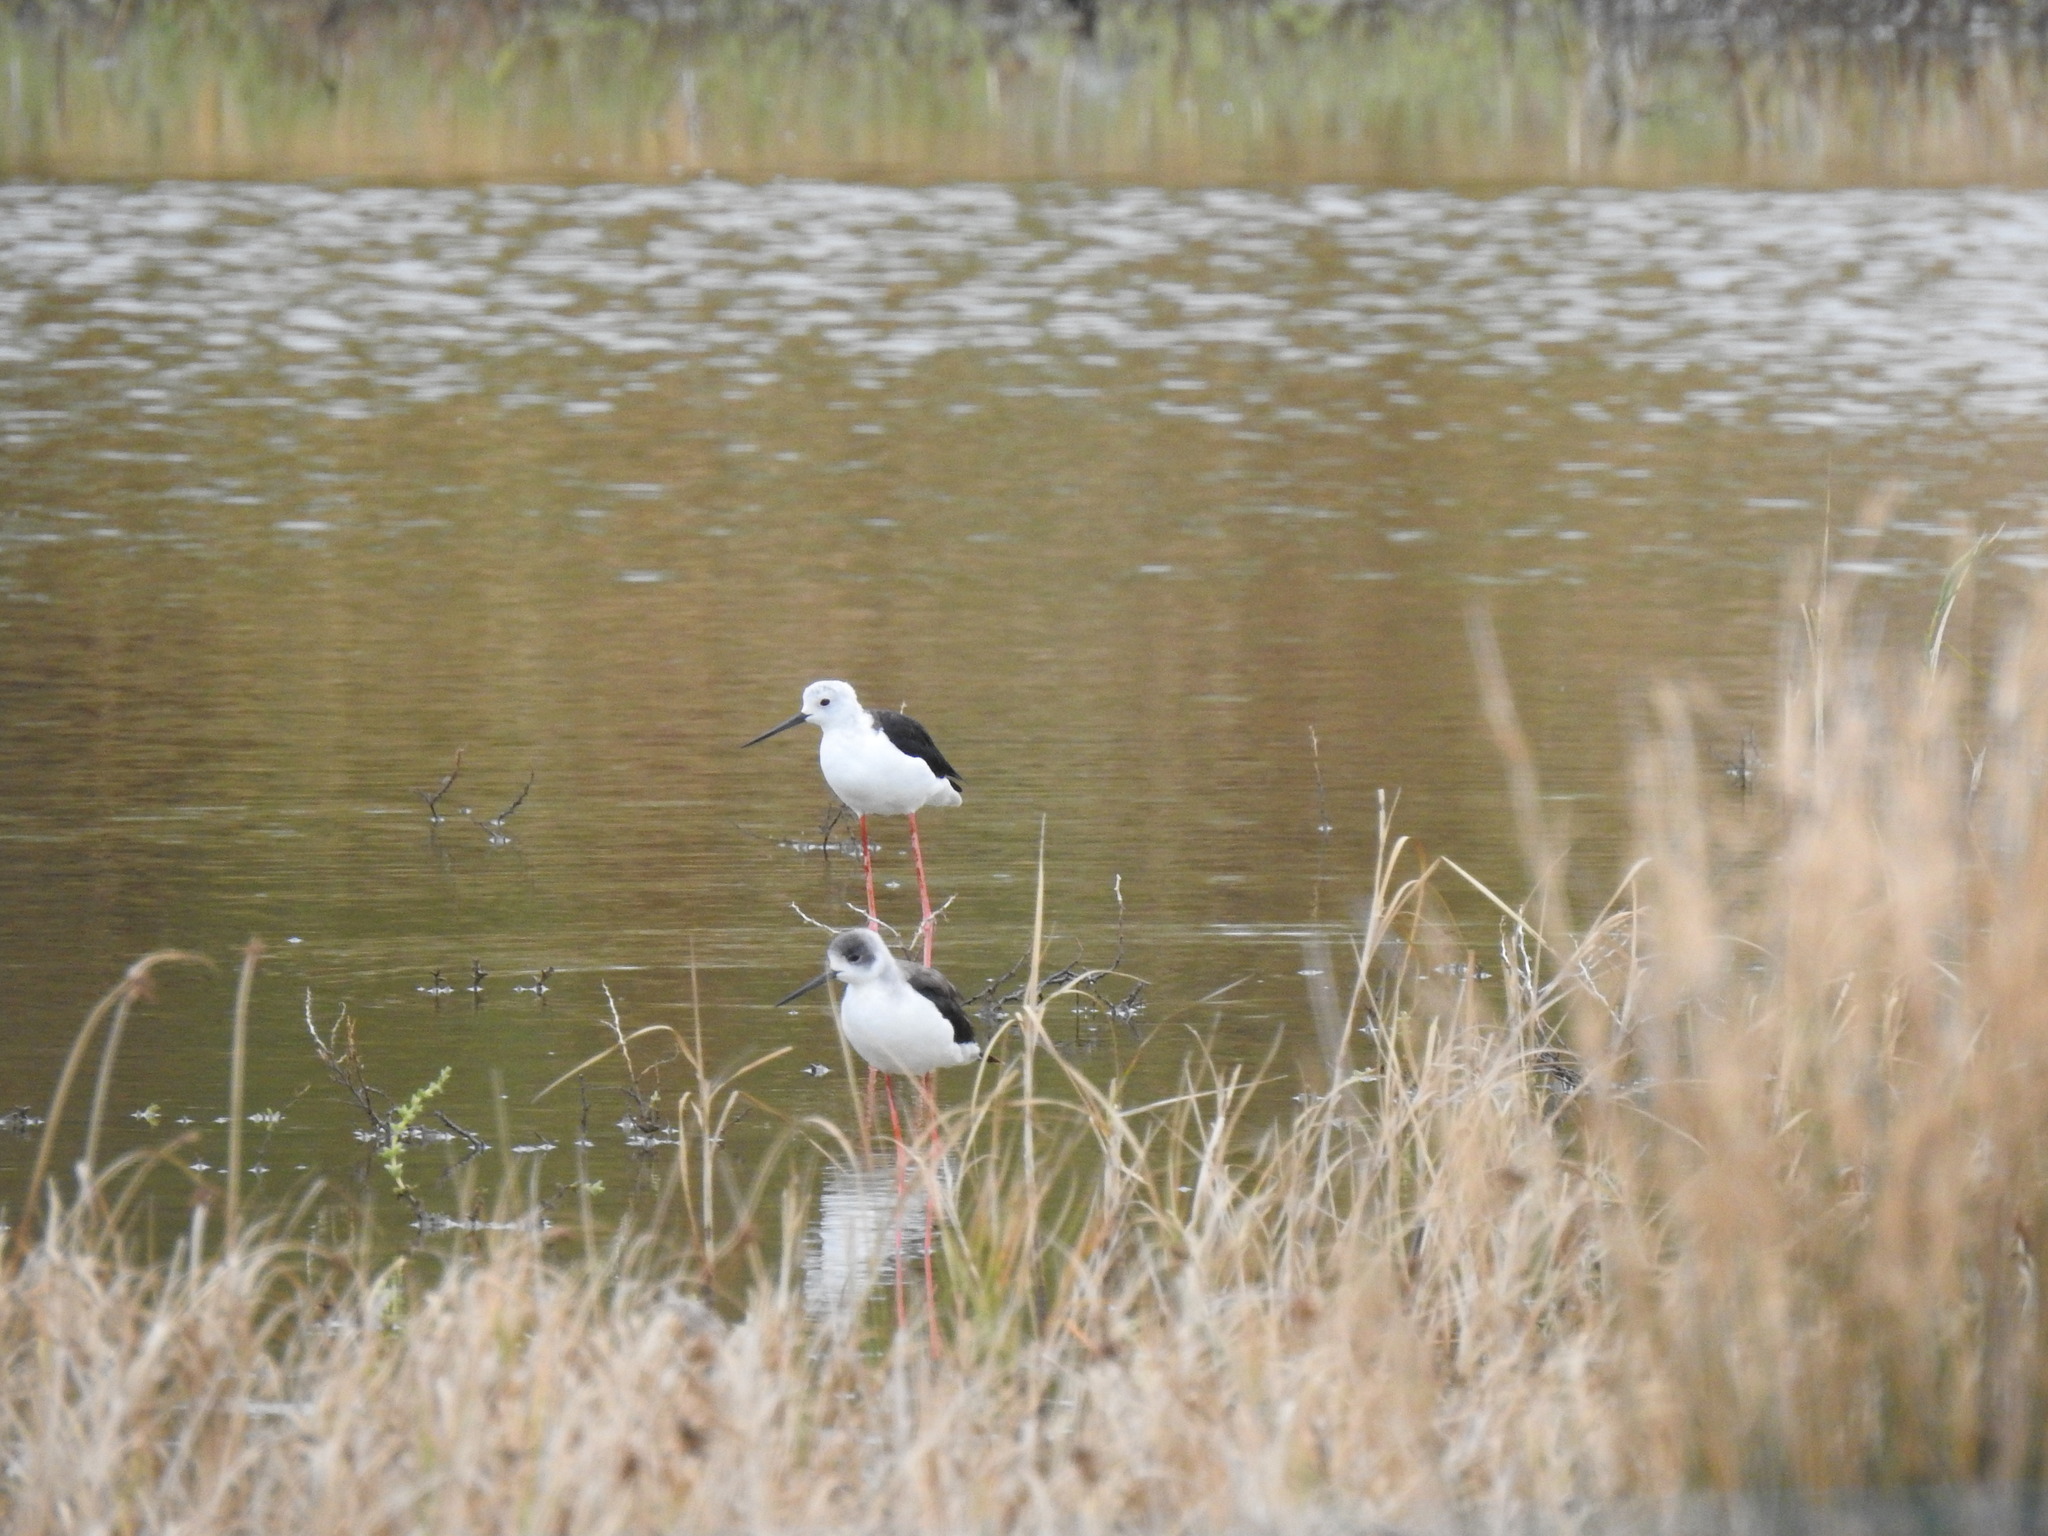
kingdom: Animalia
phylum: Chordata
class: Aves
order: Charadriiformes
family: Recurvirostridae
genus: Himantopus
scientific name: Himantopus himantopus
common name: Black-winged stilt
